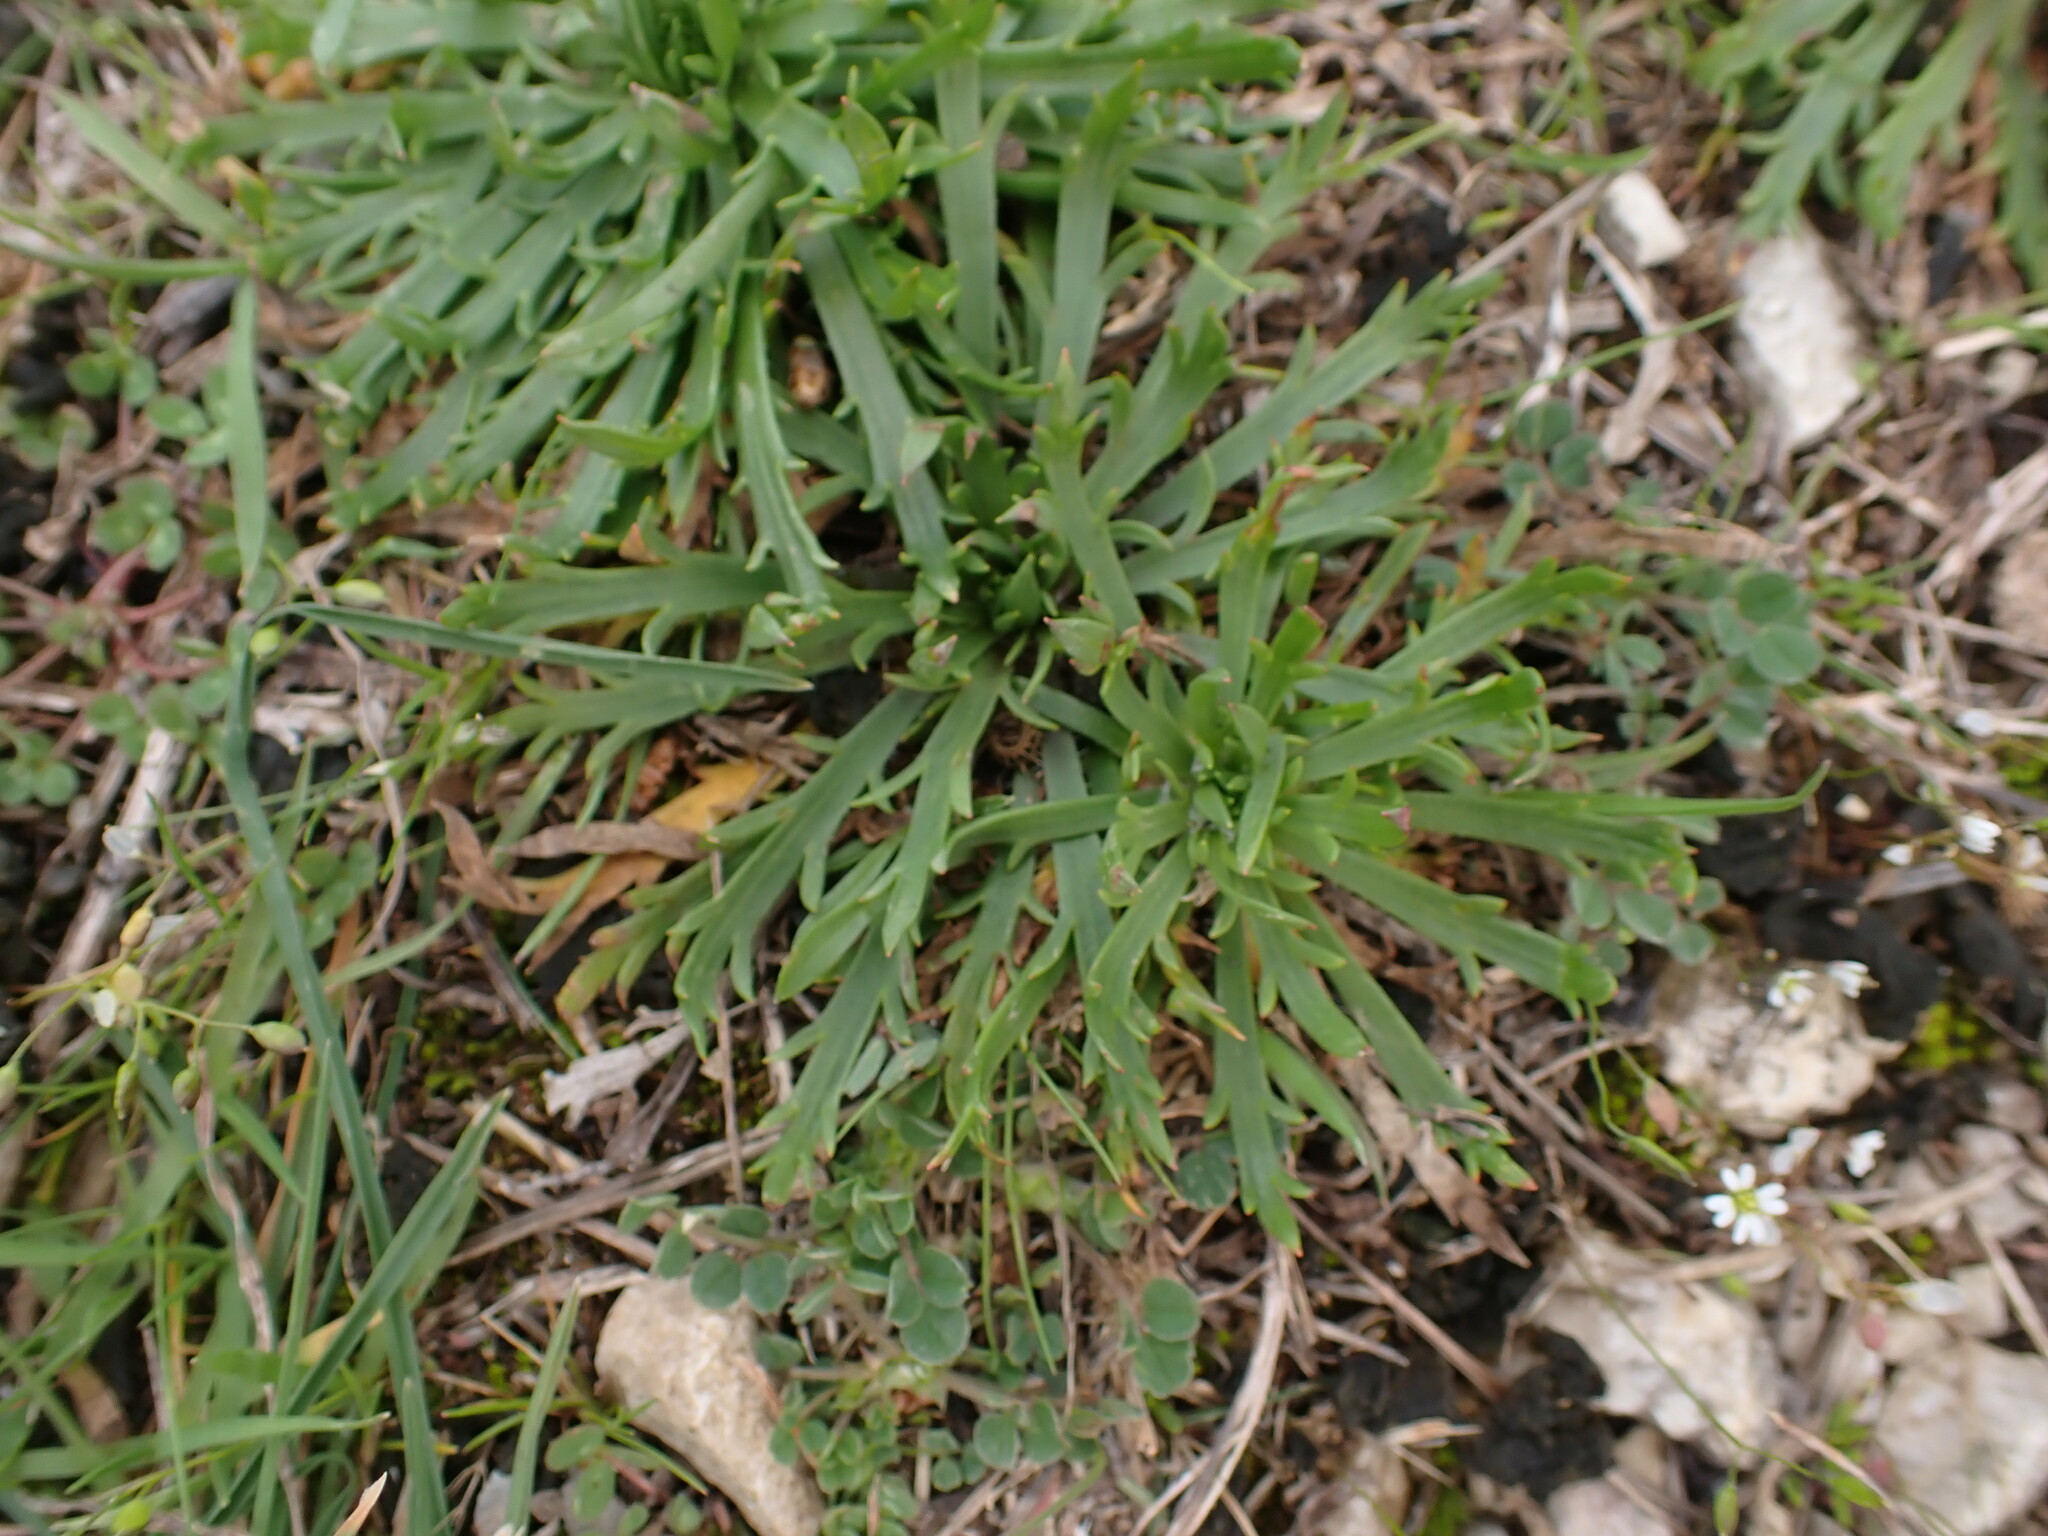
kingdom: Plantae
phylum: Tracheophyta
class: Magnoliopsida
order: Lamiales
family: Plantaginaceae
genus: Plantago
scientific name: Plantago coronopus
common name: Buck's-horn plantain
